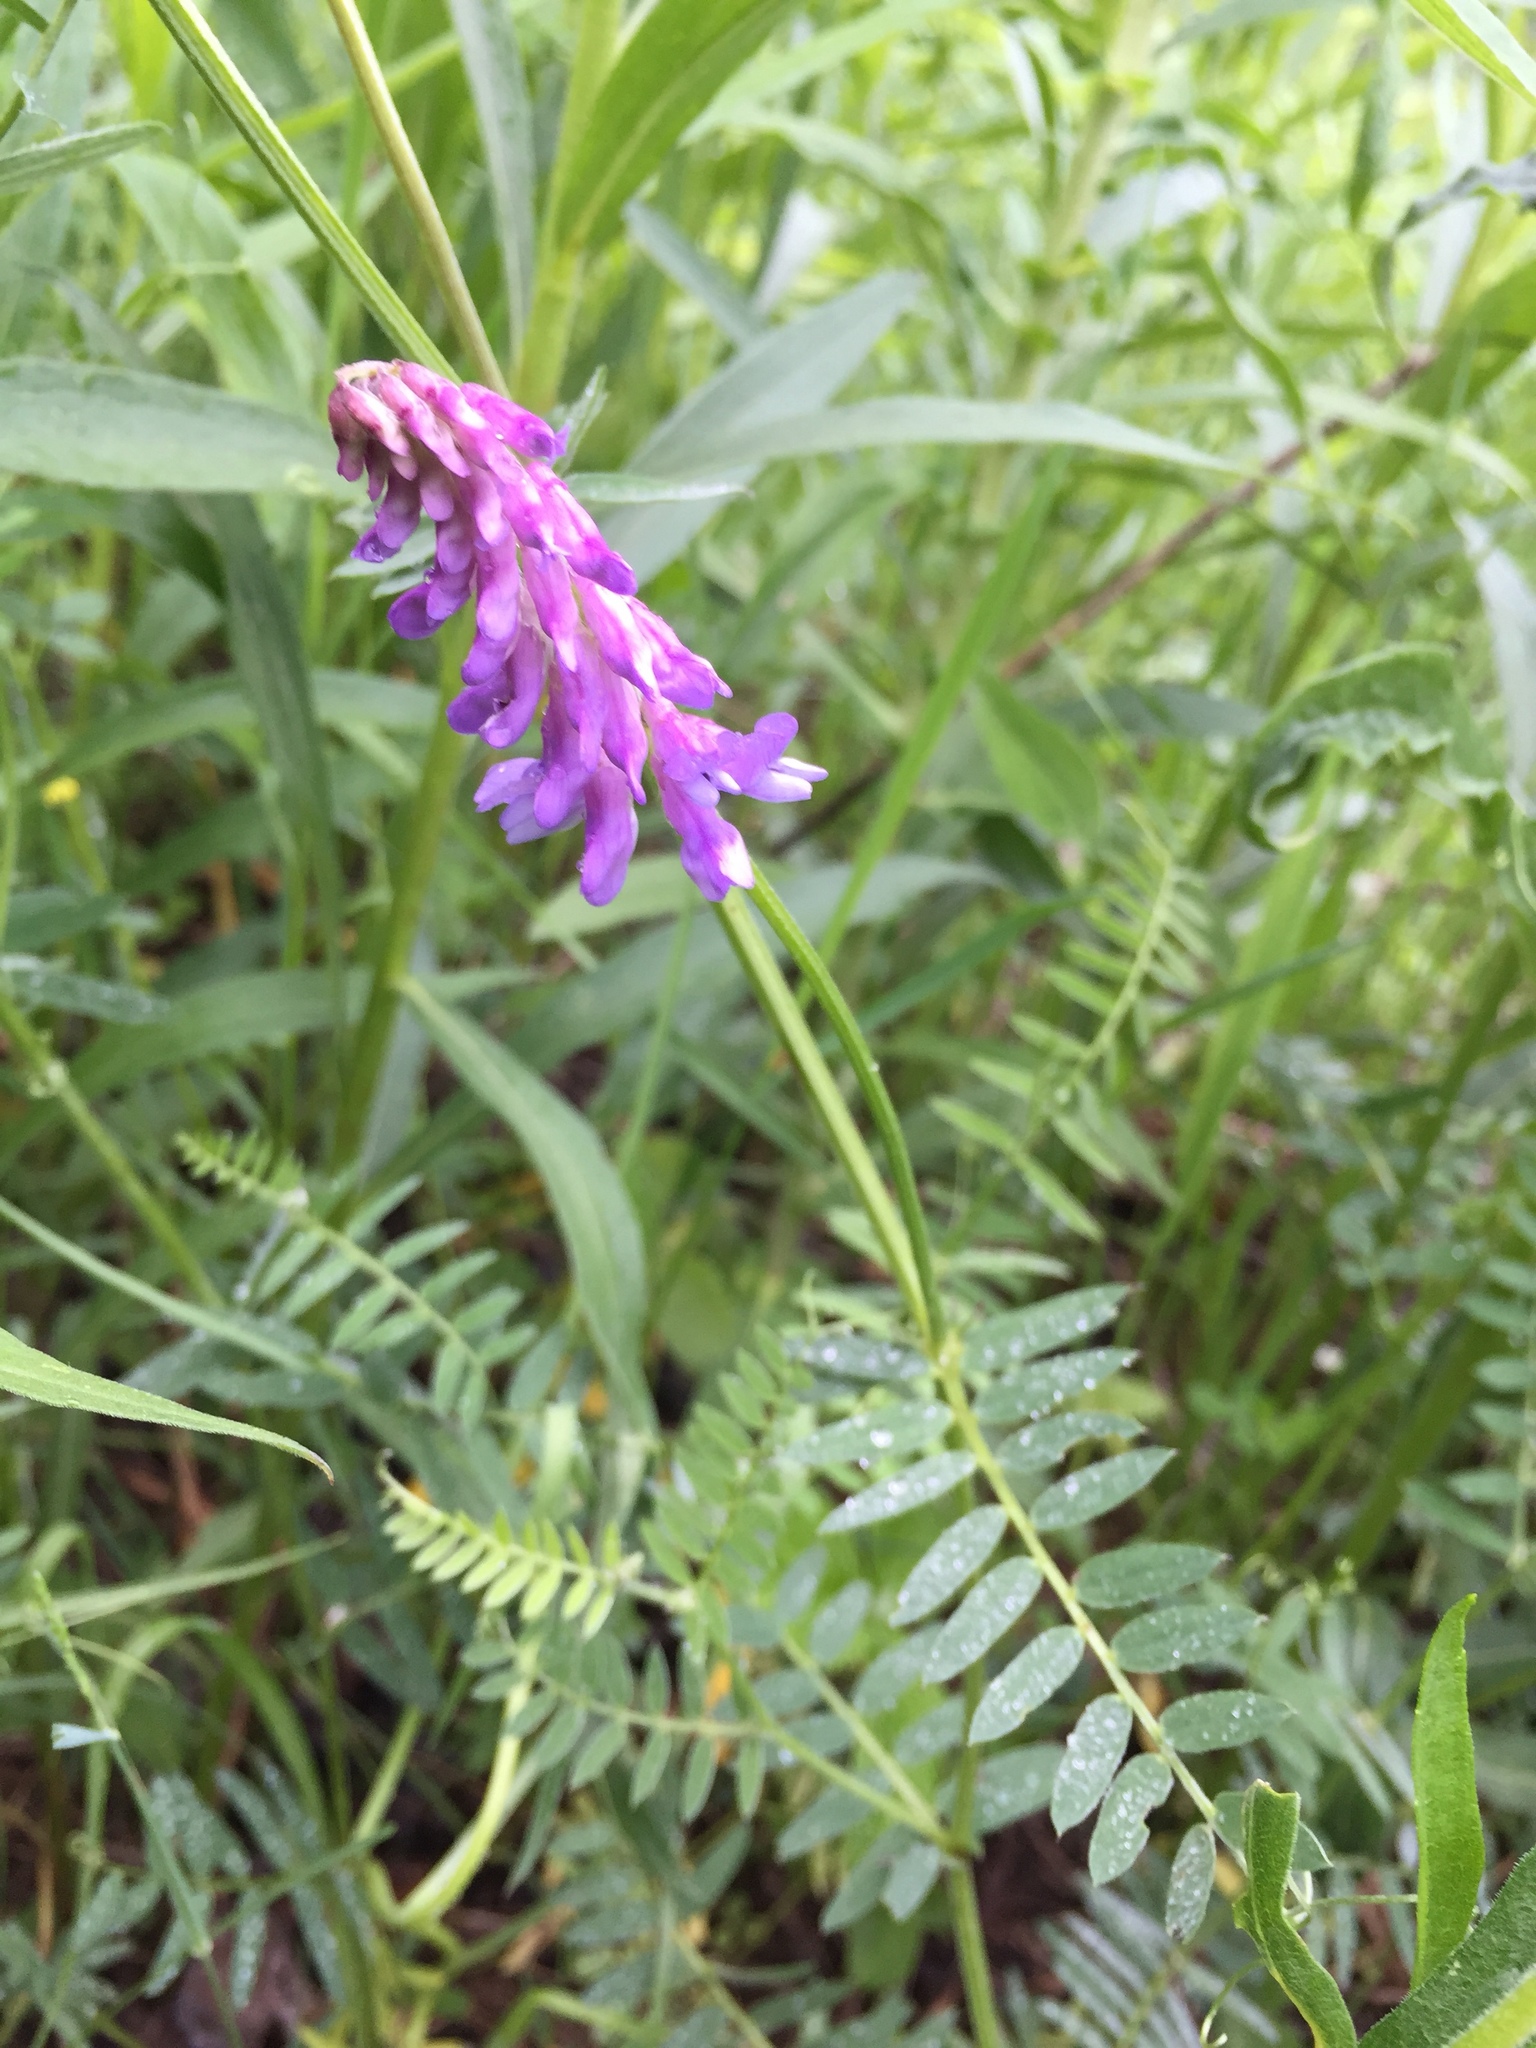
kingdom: Plantae
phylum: Tracheophyta
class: Magnoliopsida
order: Fabales
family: Fabaceae
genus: Vicia
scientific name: Vicia cracca
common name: Bird vetch
